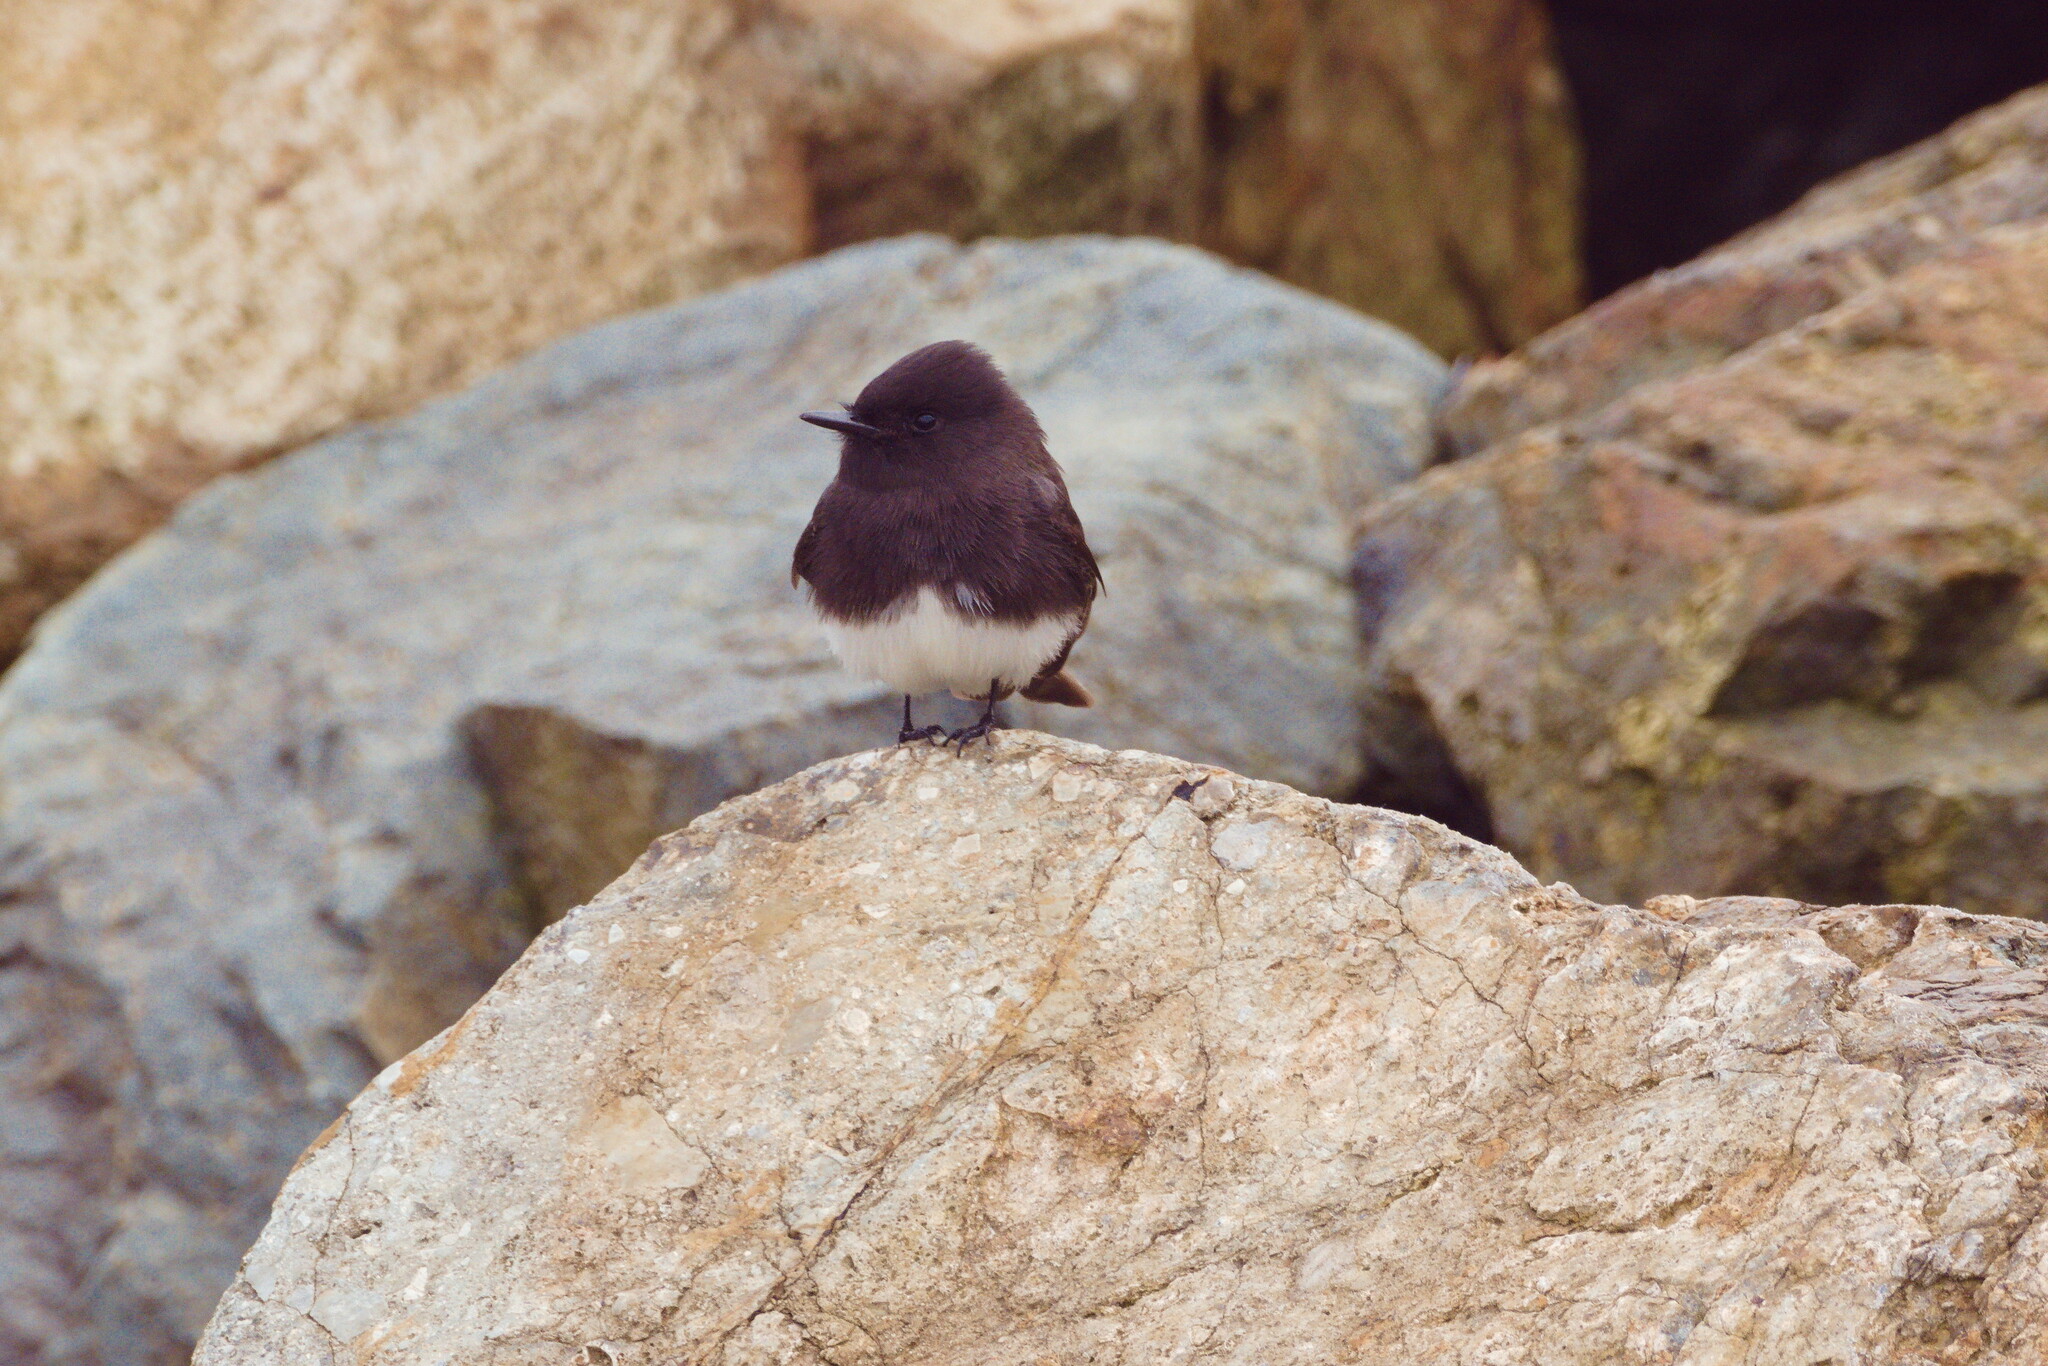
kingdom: Animalia
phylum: Chordata
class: Aves
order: Passeriformes
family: Tyrannidae
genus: Sayornis
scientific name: Sayornis nigricans
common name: Black phoebe
